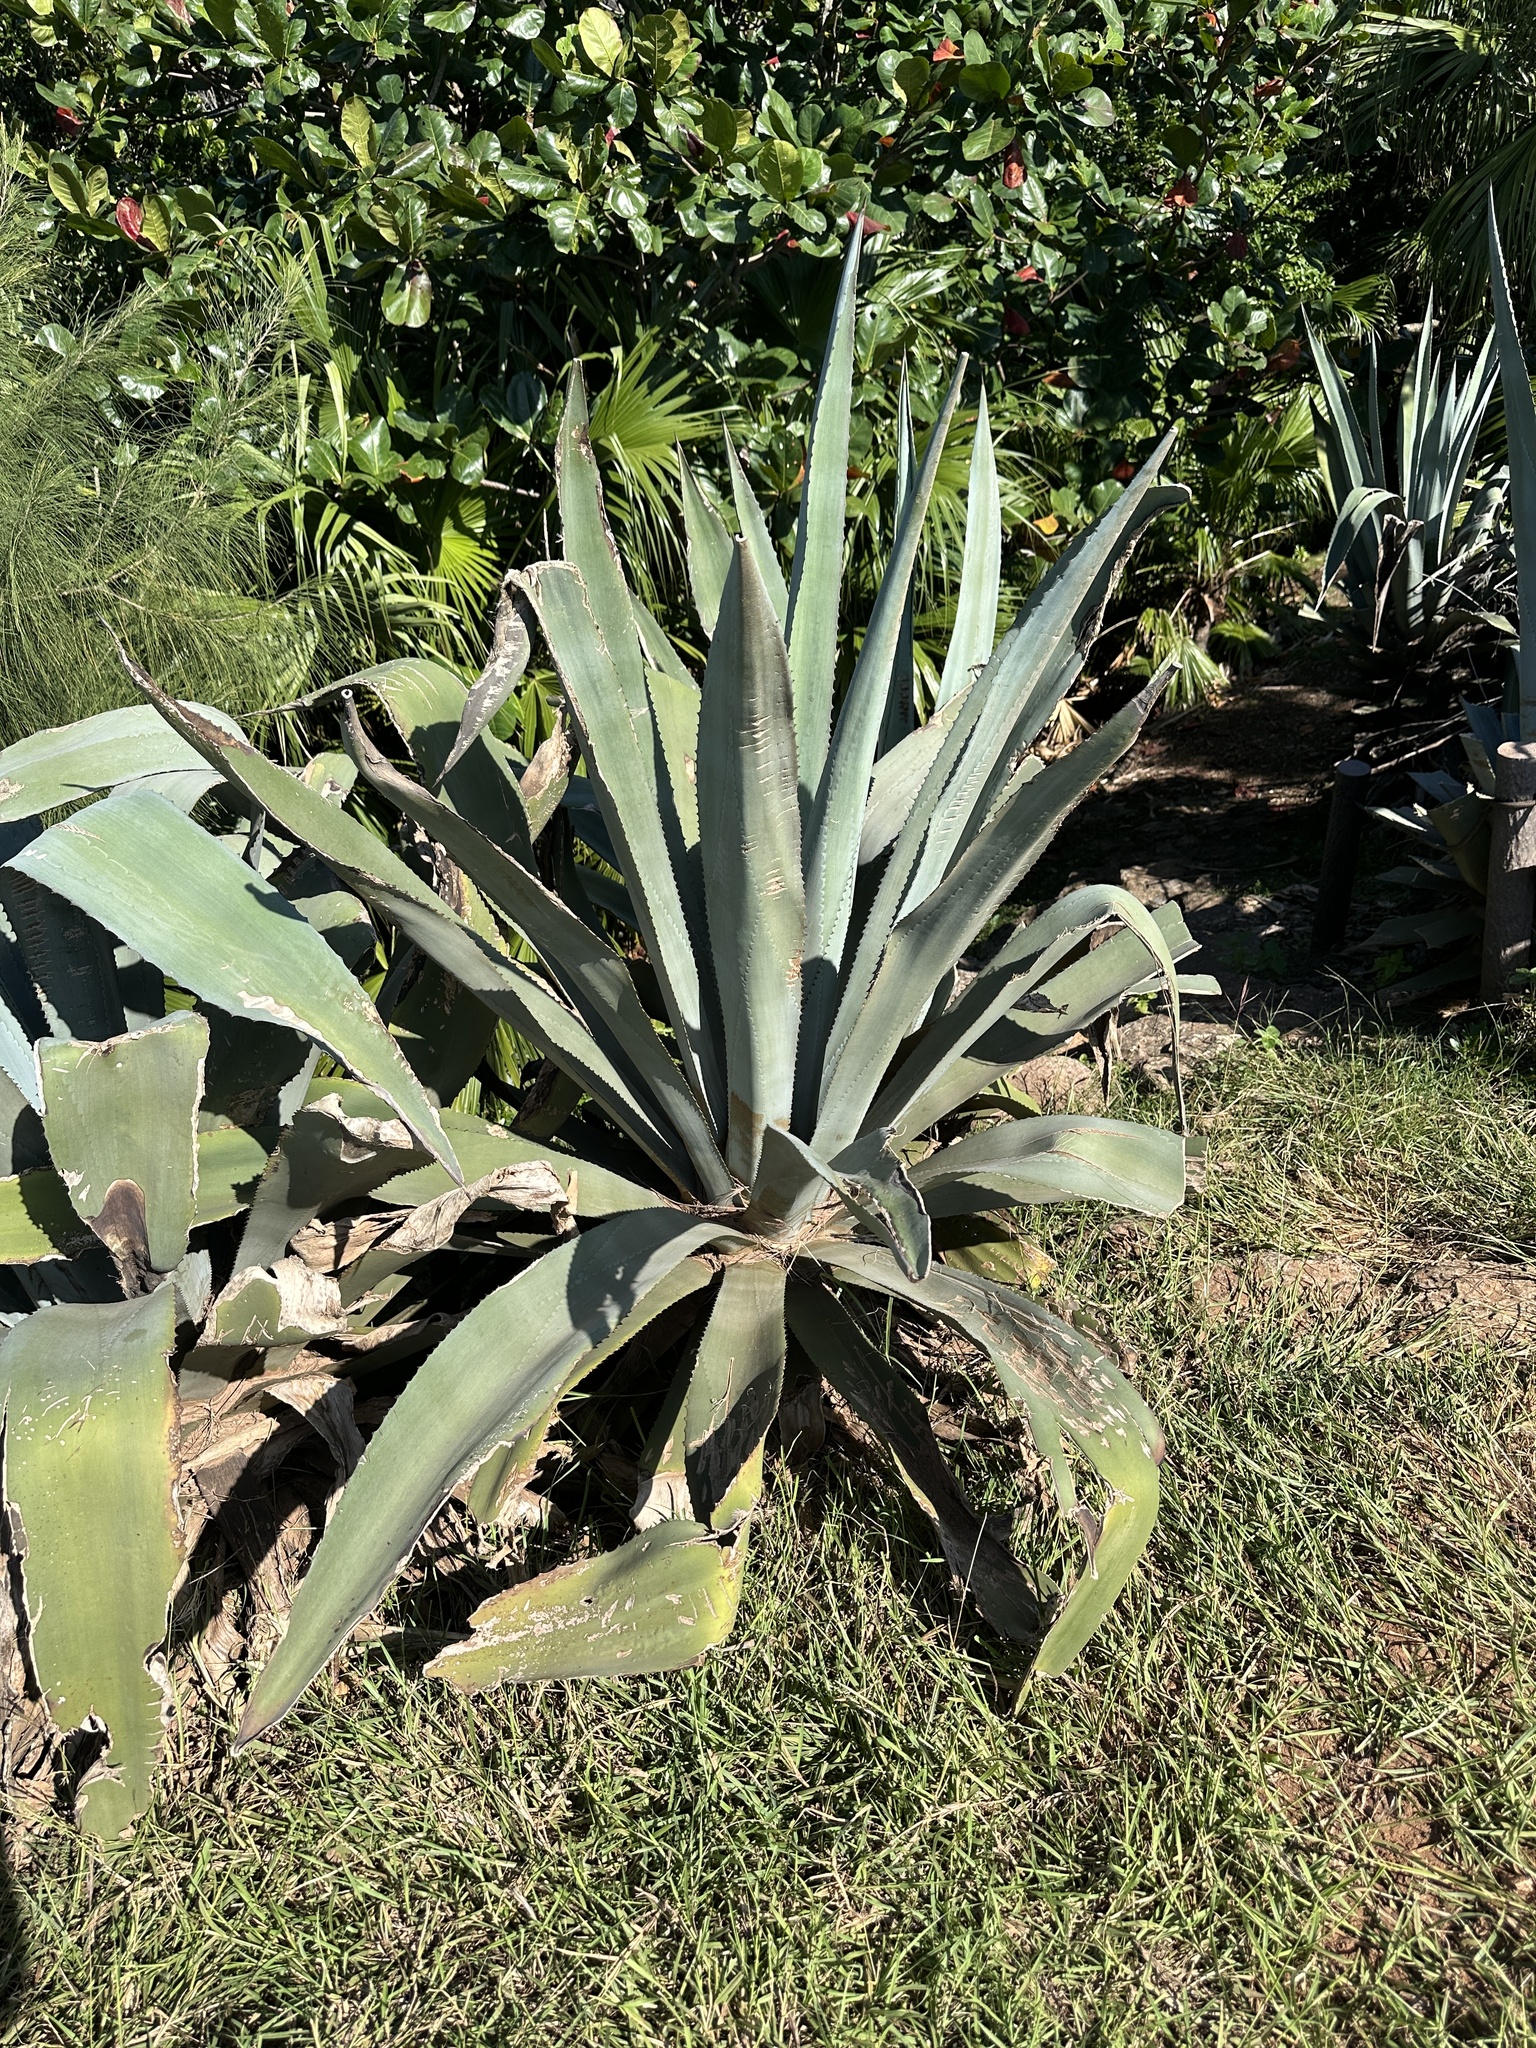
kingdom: Plantae
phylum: Tracheophyta
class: Liliopsida
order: Asparagales
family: Asparagaceae
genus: Agave
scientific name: Agave americana
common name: Centuryplant
